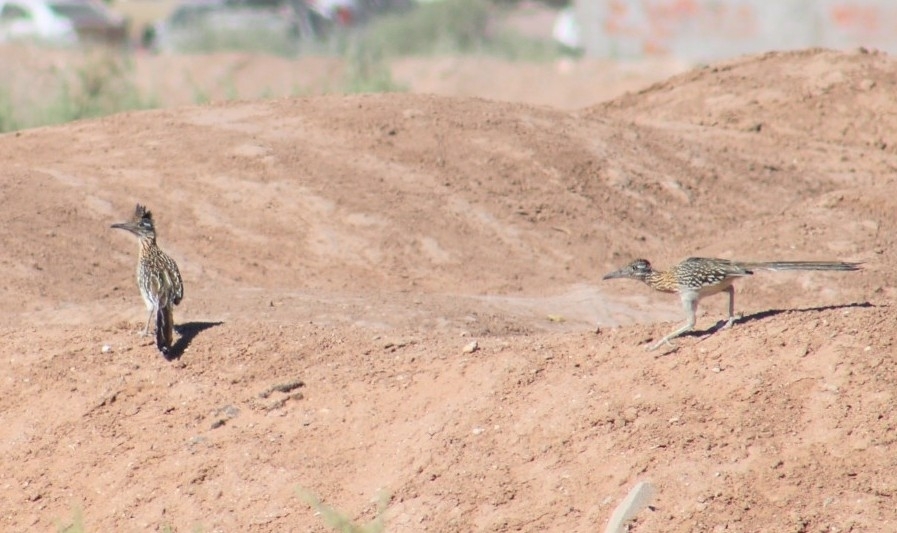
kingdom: Animalia
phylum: Chordata
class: Aves
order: Cuculiformes
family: Cuculidae
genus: Geococcyx
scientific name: Geococcyx californianus
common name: Greater roadrunner
